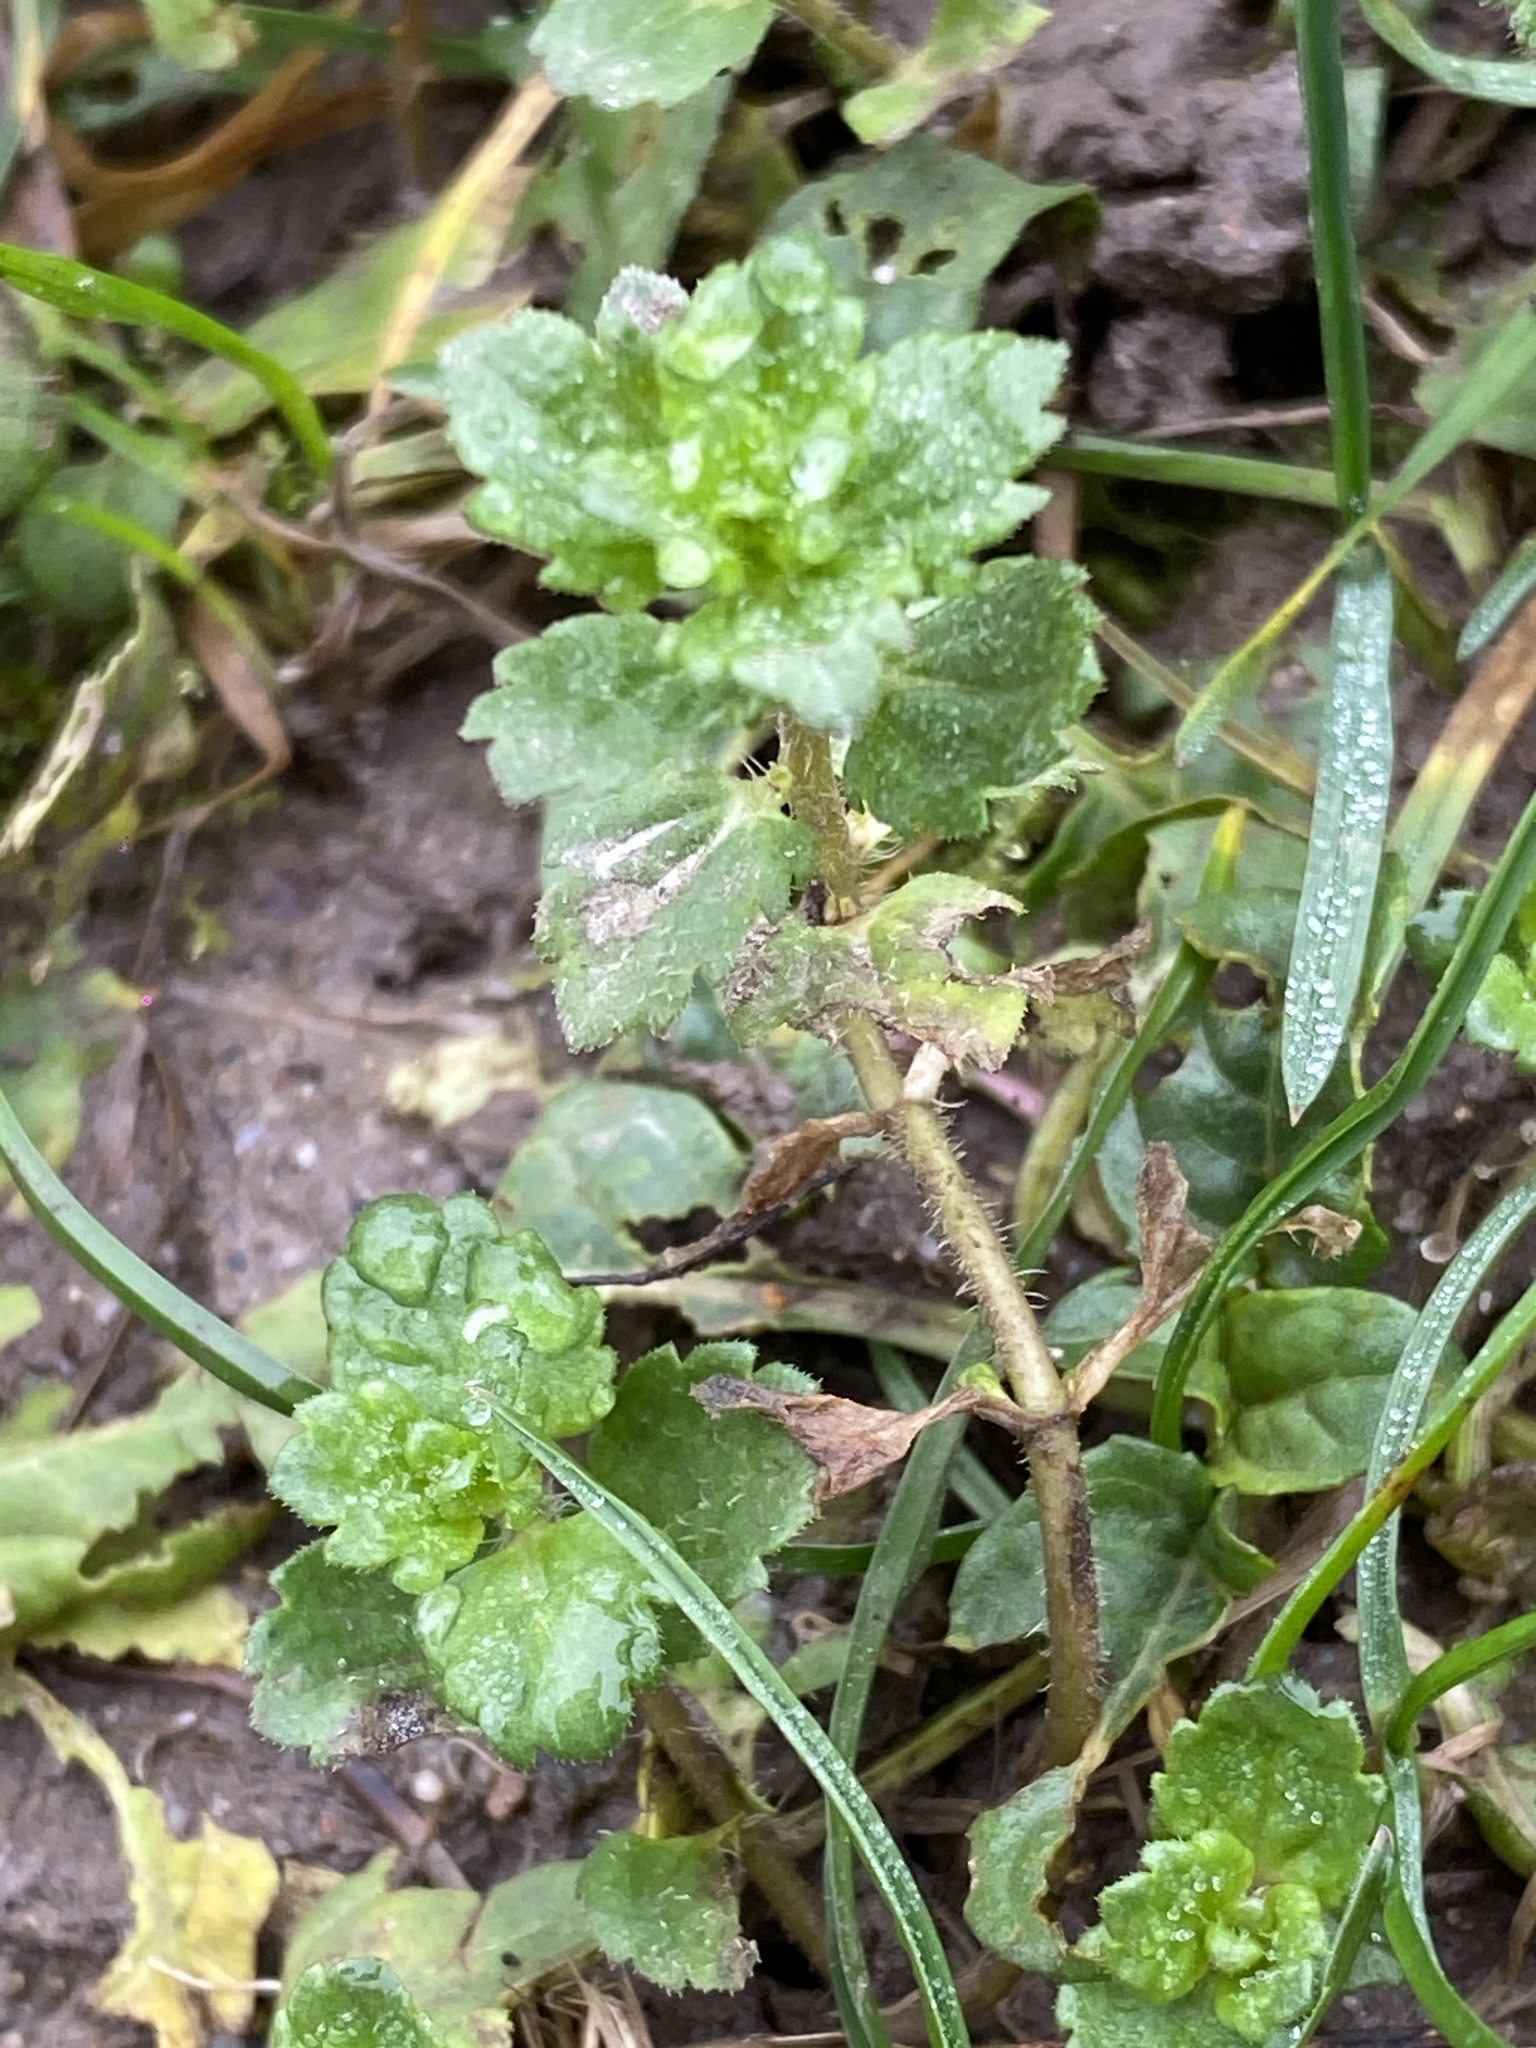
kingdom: Plantae
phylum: Tracheophyta
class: Magnoliopsida
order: Lamiales
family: Plantaginaceae
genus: Veronica
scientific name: Veronica persica
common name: Common field-speedwell
